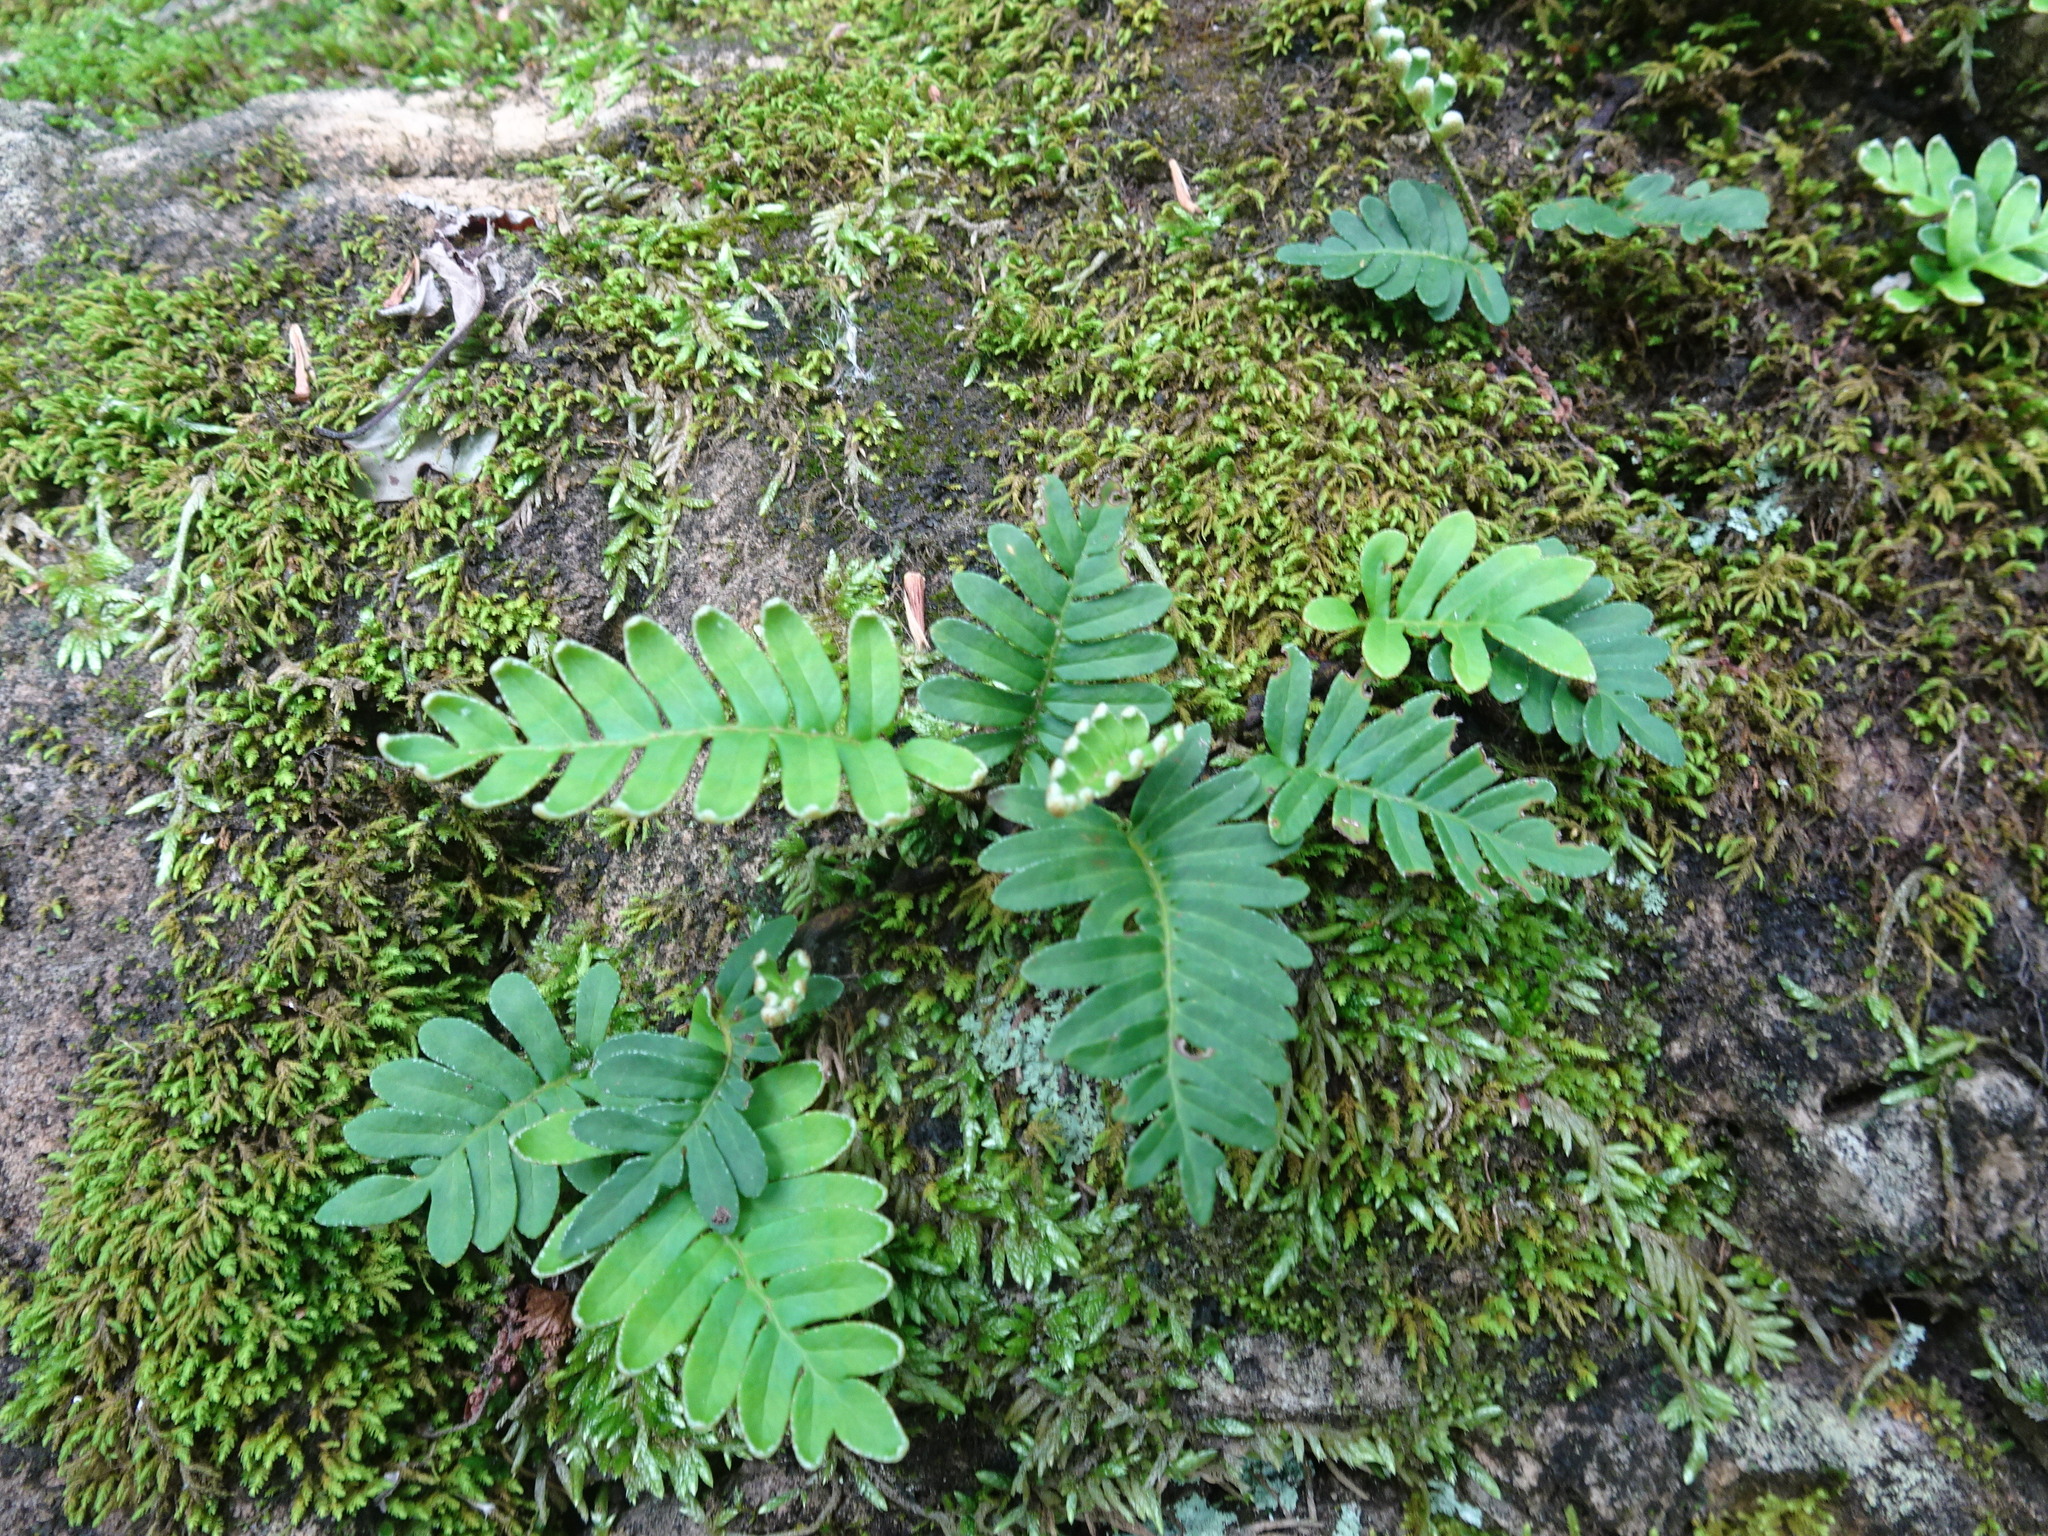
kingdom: Plantae
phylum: Tracheophyta
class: Polypodiopsida
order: Polypodiales
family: Polypodiaceae
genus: Pleopeltis
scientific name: Pleopeltis michauxiana
